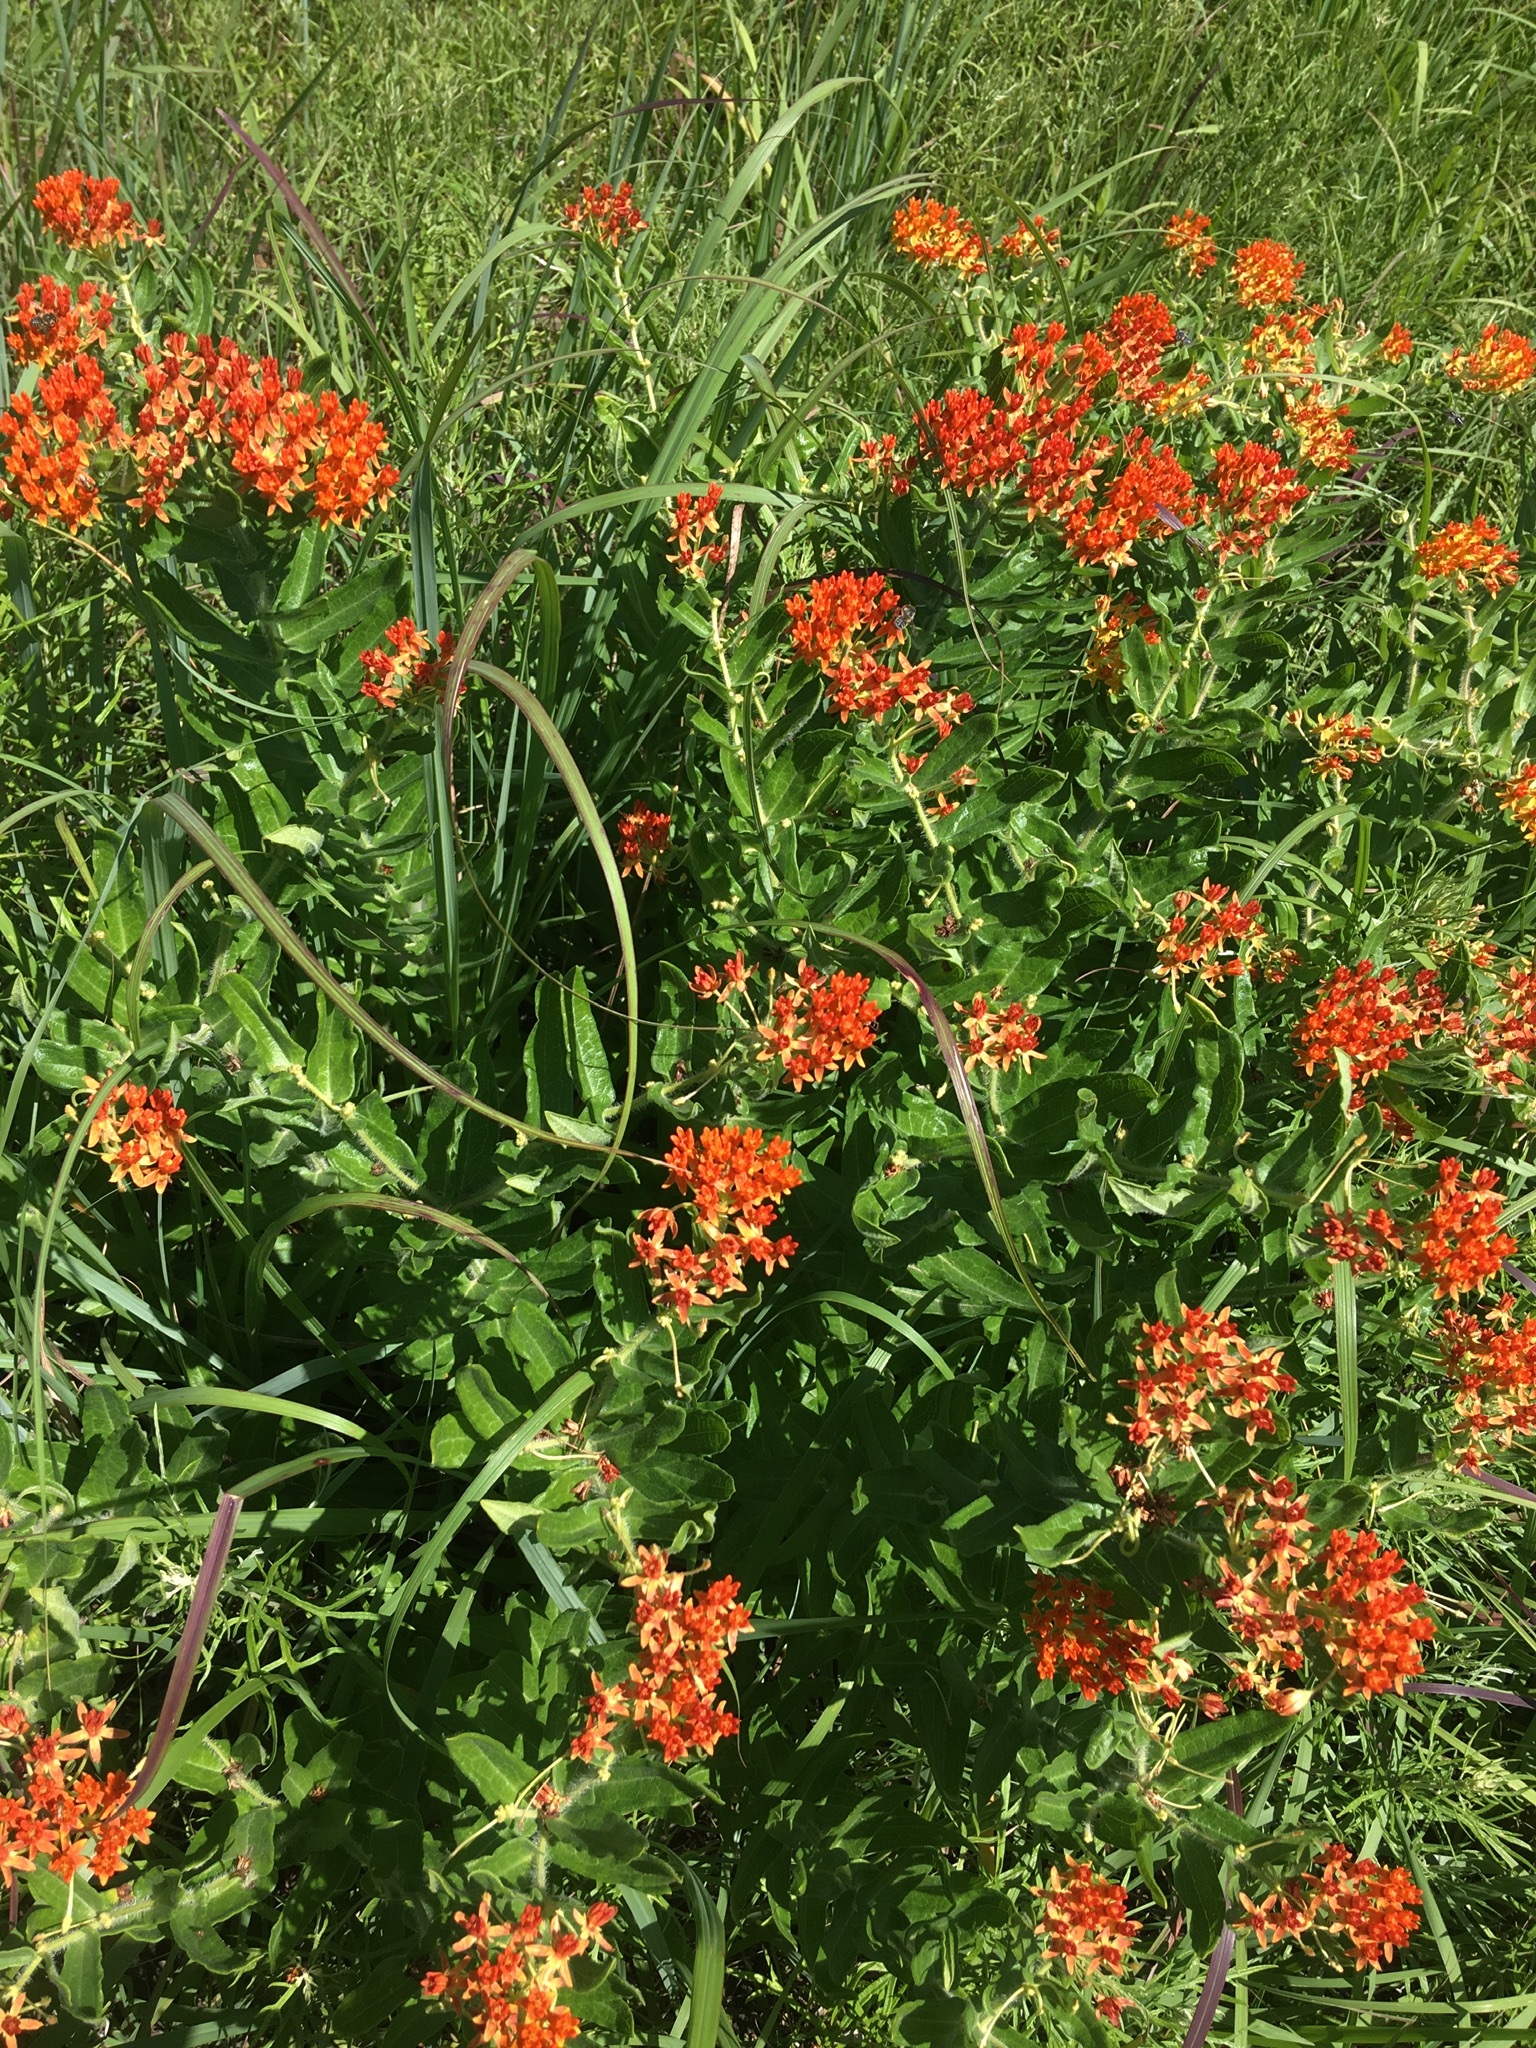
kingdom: Plantae
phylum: Tracheophyta
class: Magnoliopsida
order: Gentianales
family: Apocynaceae
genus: Asclepias
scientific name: Asclepias tuberosa
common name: Butterfly milkweed
